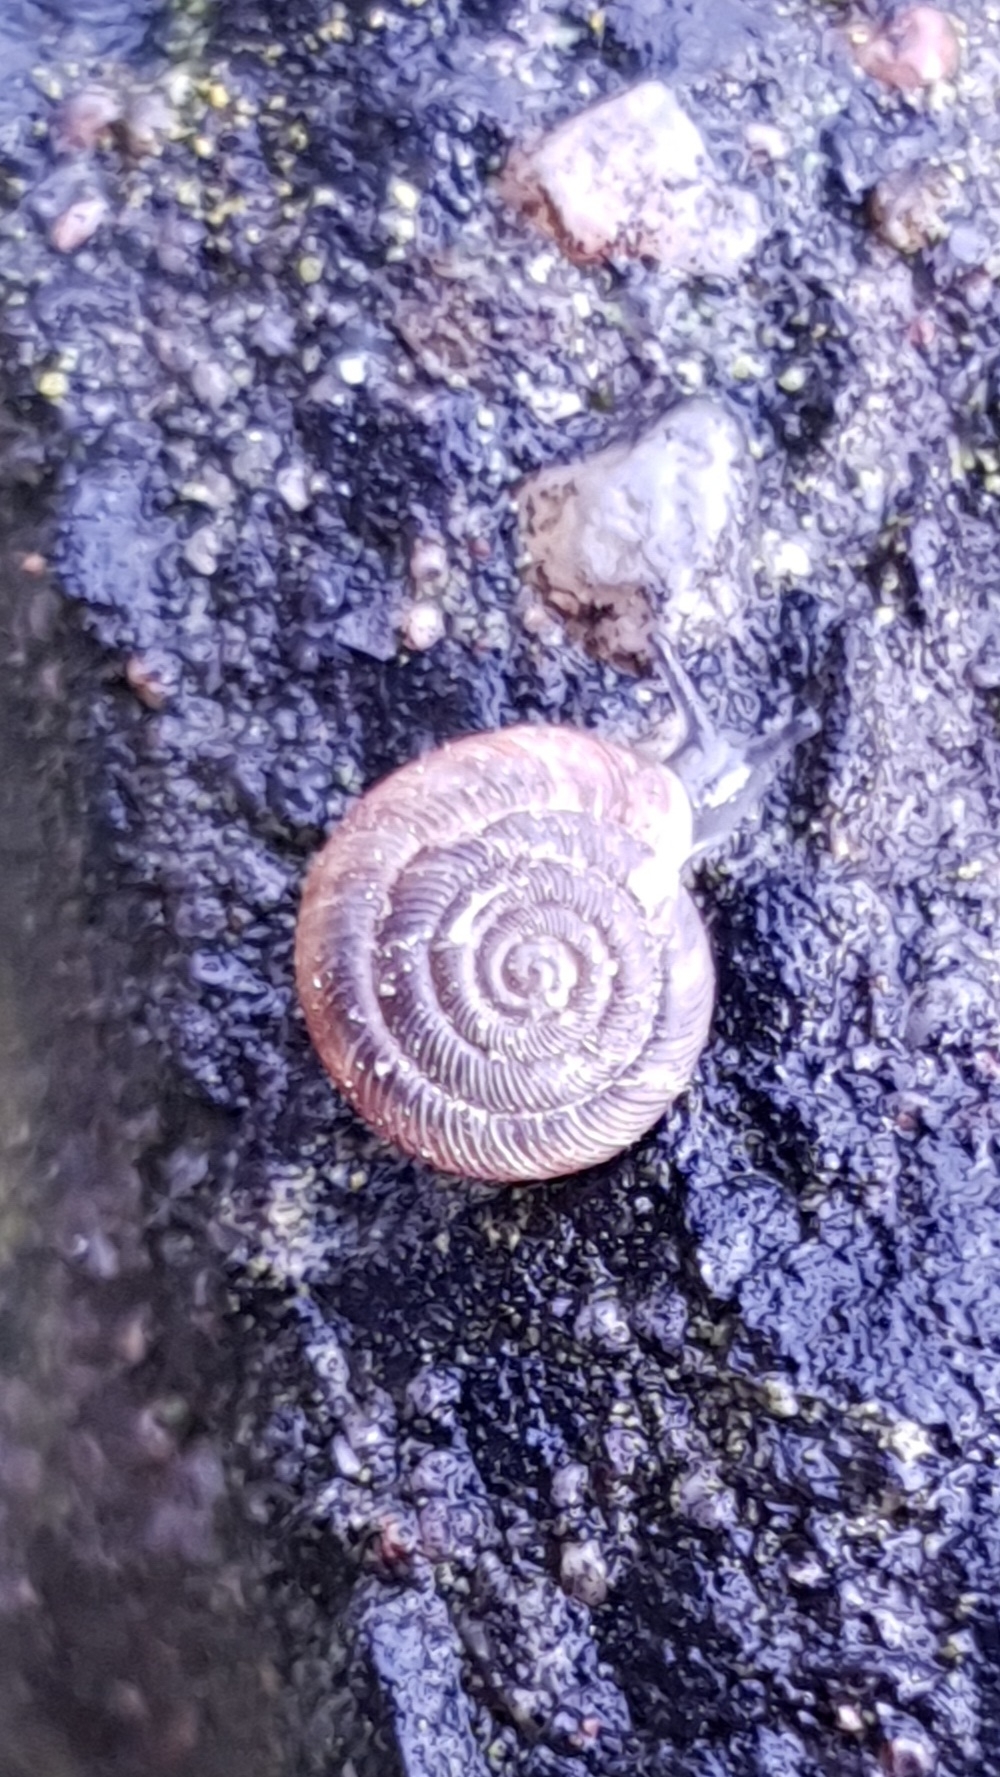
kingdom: Animalia
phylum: Mollusca
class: Gastropoda
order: Stylommatophora
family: Discidae
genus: Discus
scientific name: Discus rotundatus
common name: Rounded snail
